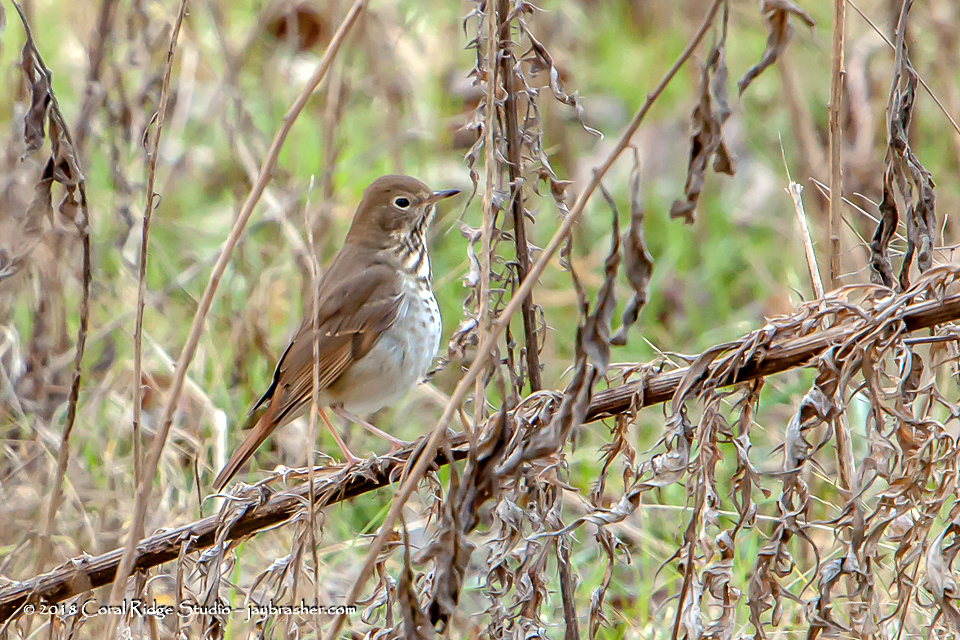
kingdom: Animalia
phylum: Chordata
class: Aves
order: Passeriformes
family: Turdidae
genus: Catharus
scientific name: Catharus guttatus
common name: Hermit thrush
